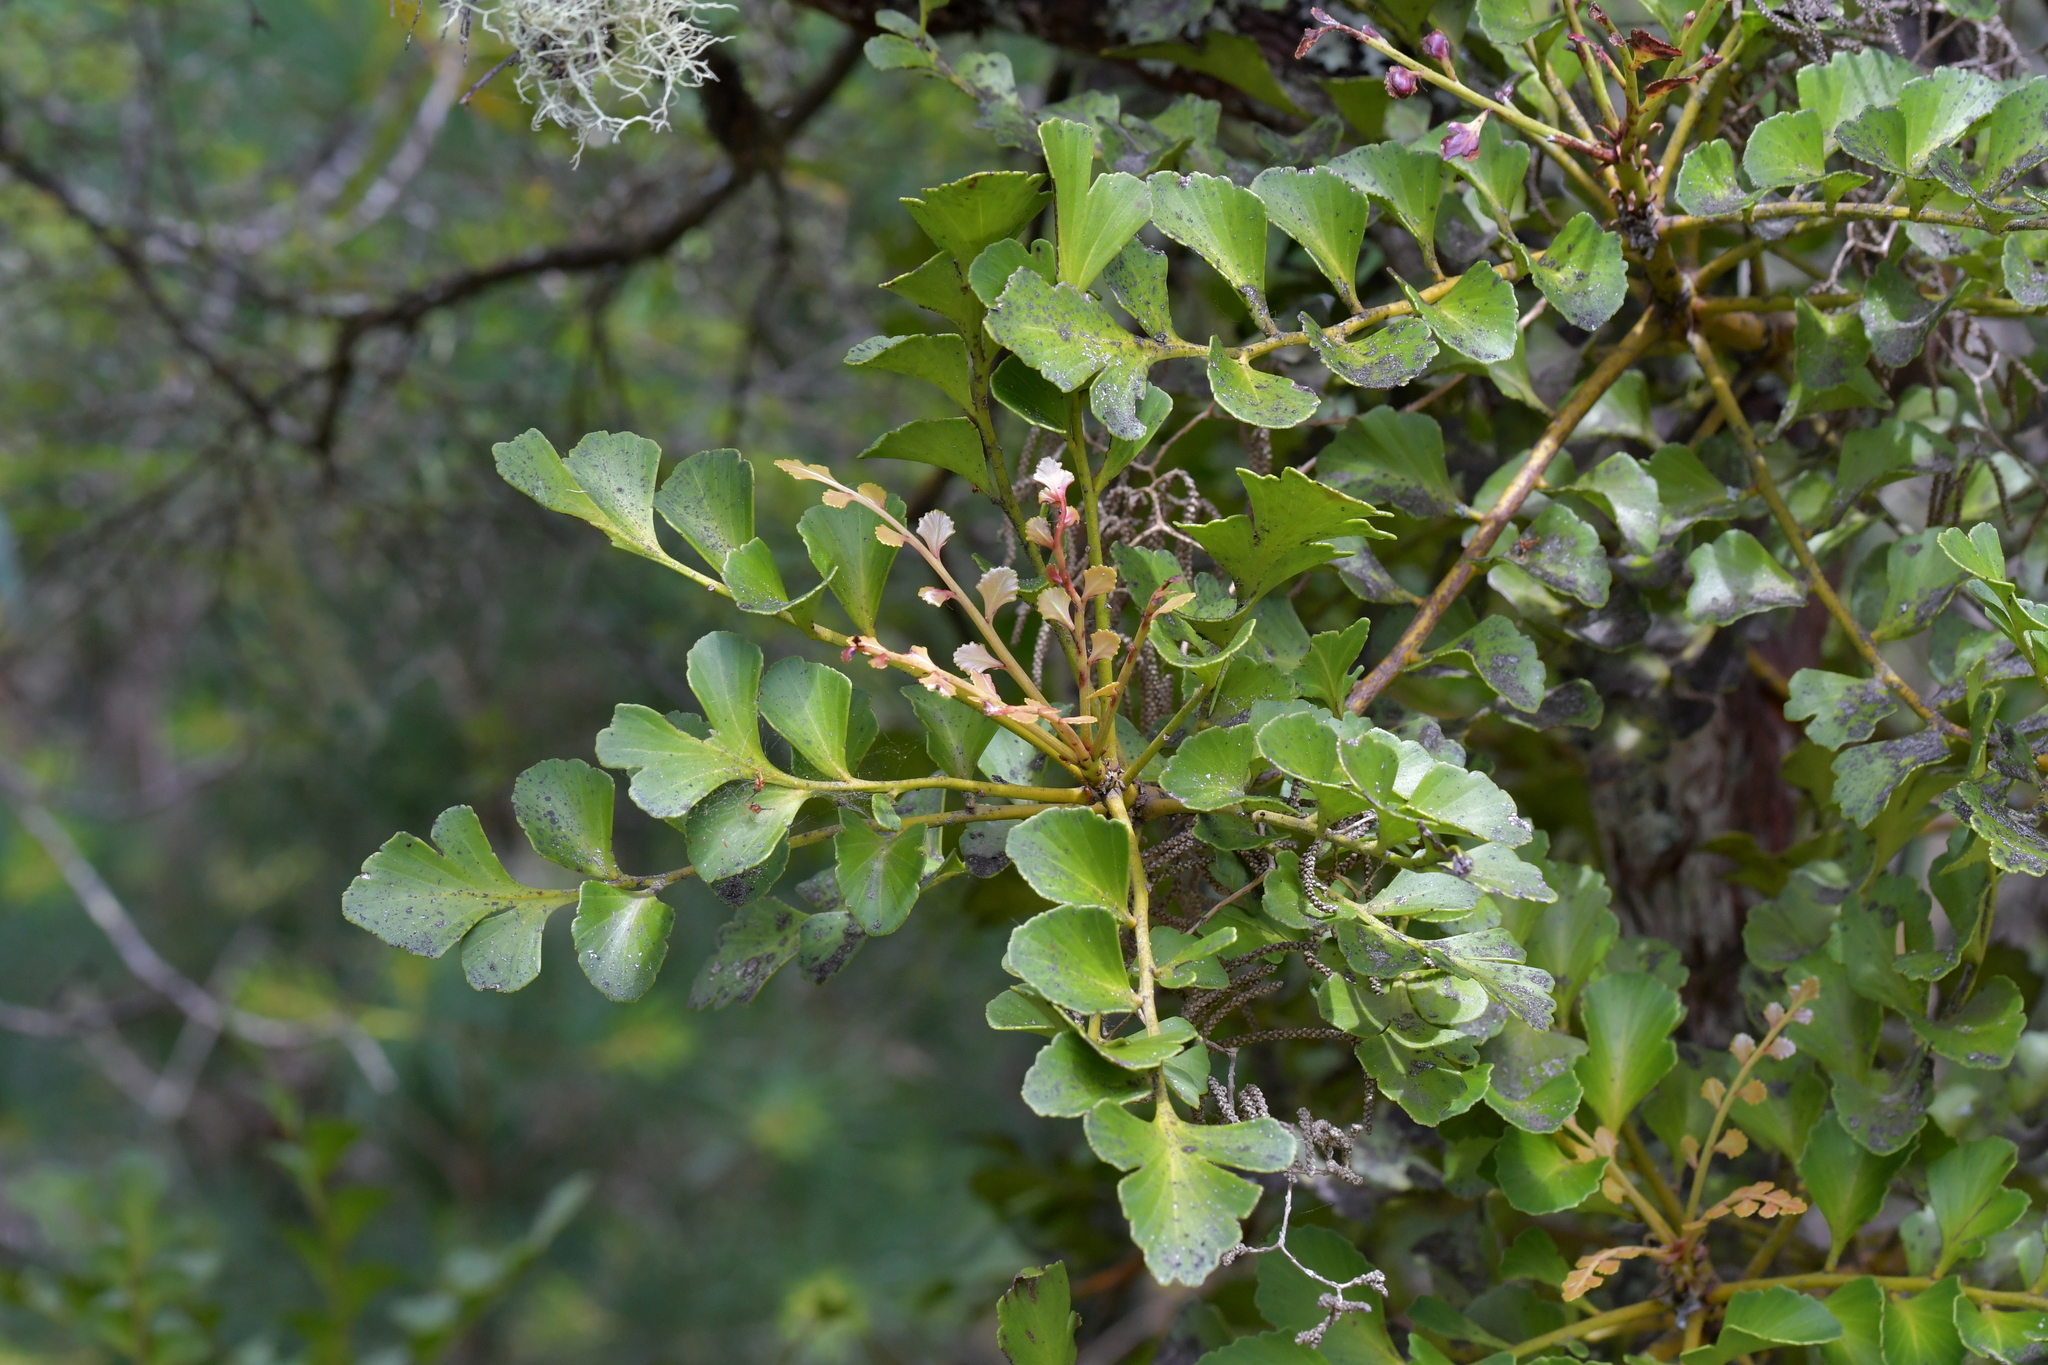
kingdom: Plantae
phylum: Tracheophyta
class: Pinopsida
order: Pinales
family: Phyllocladaceae
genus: Phyllocladus
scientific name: Phyllocladus toatoa
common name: Celery-top pine
